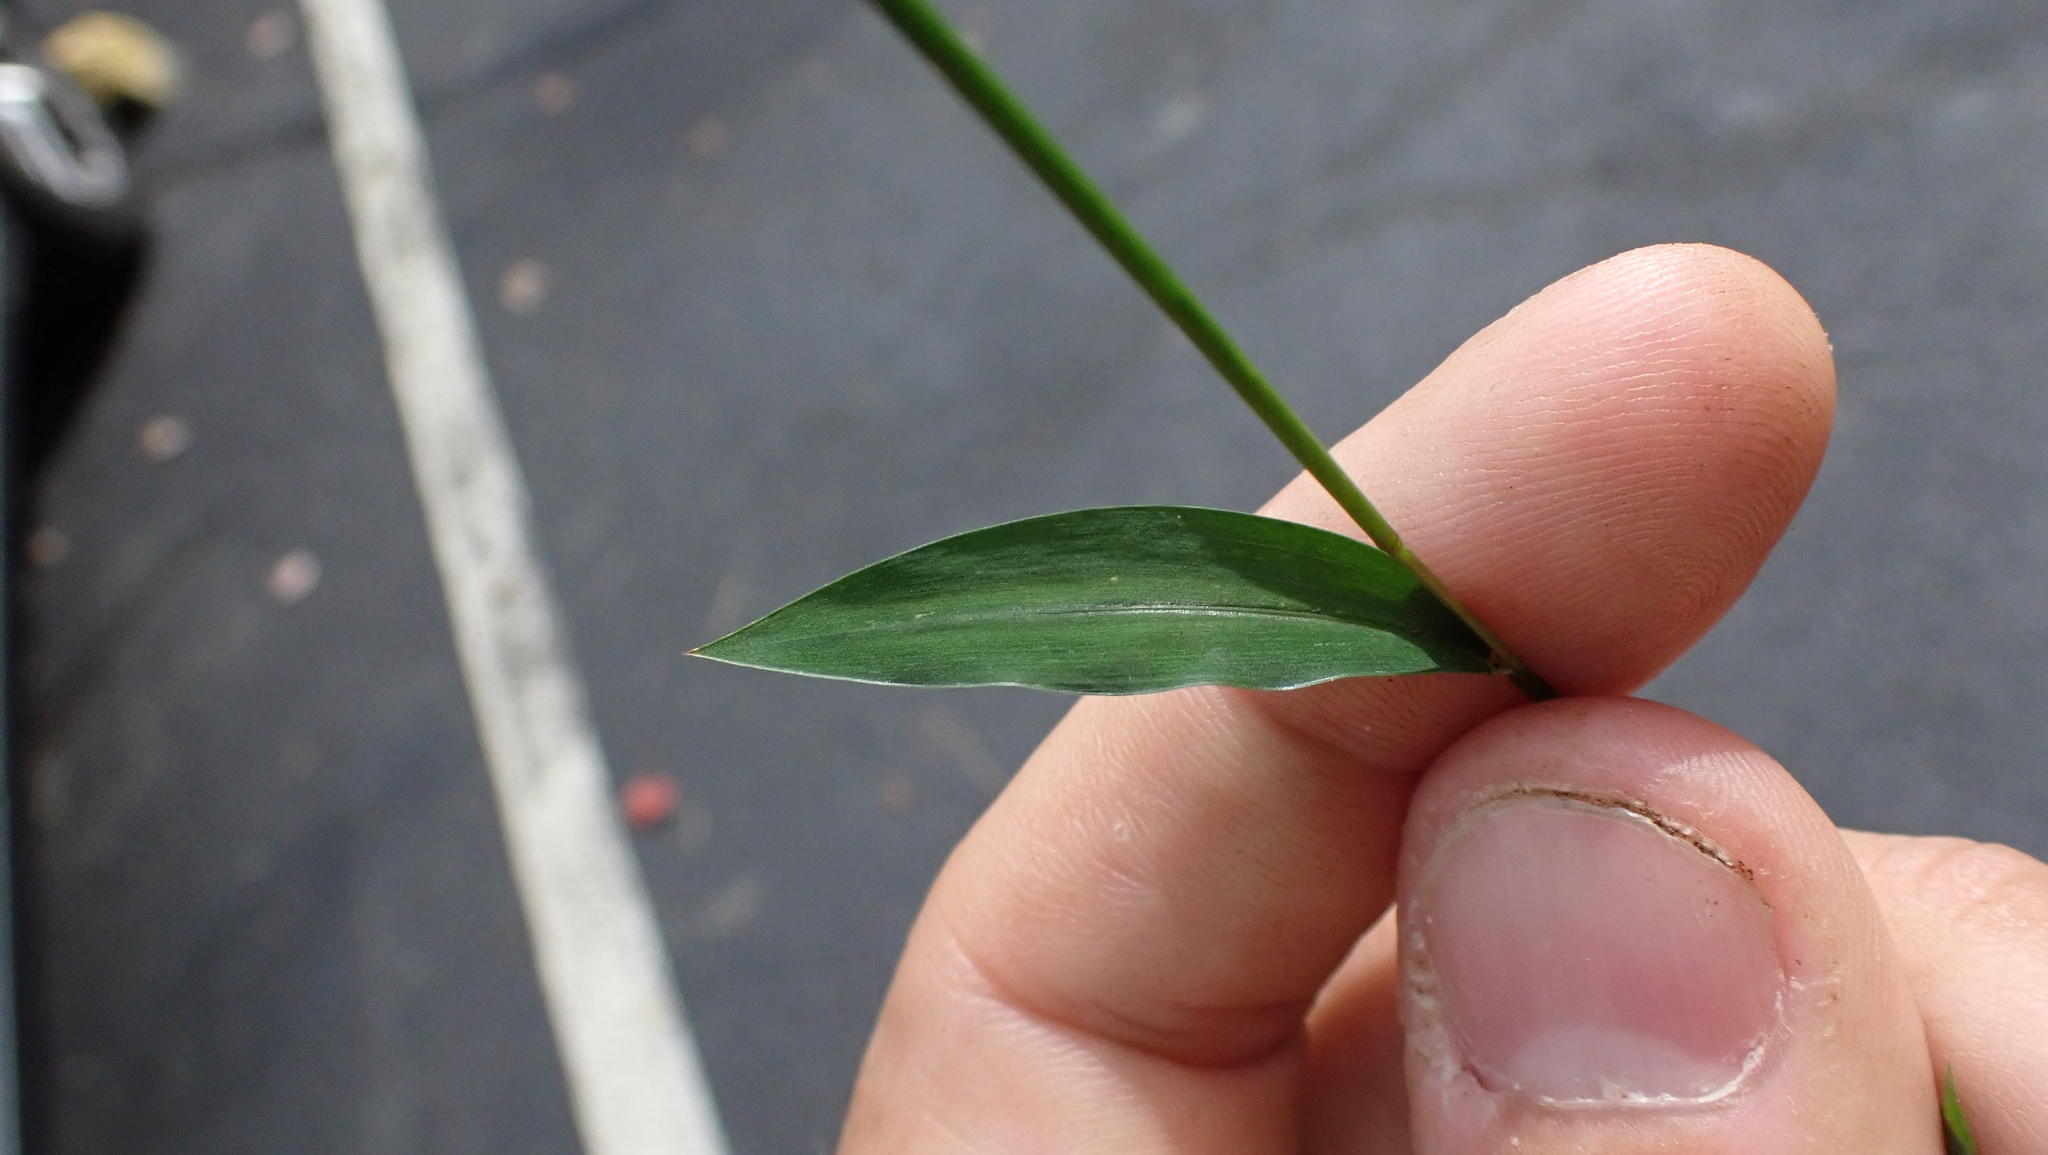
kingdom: Plantae
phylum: Tracheophyta
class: Liliopsida
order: Poales
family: Poaceae
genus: Microstegium
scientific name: Microstegium vimineum
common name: Japanese stiltgrass
